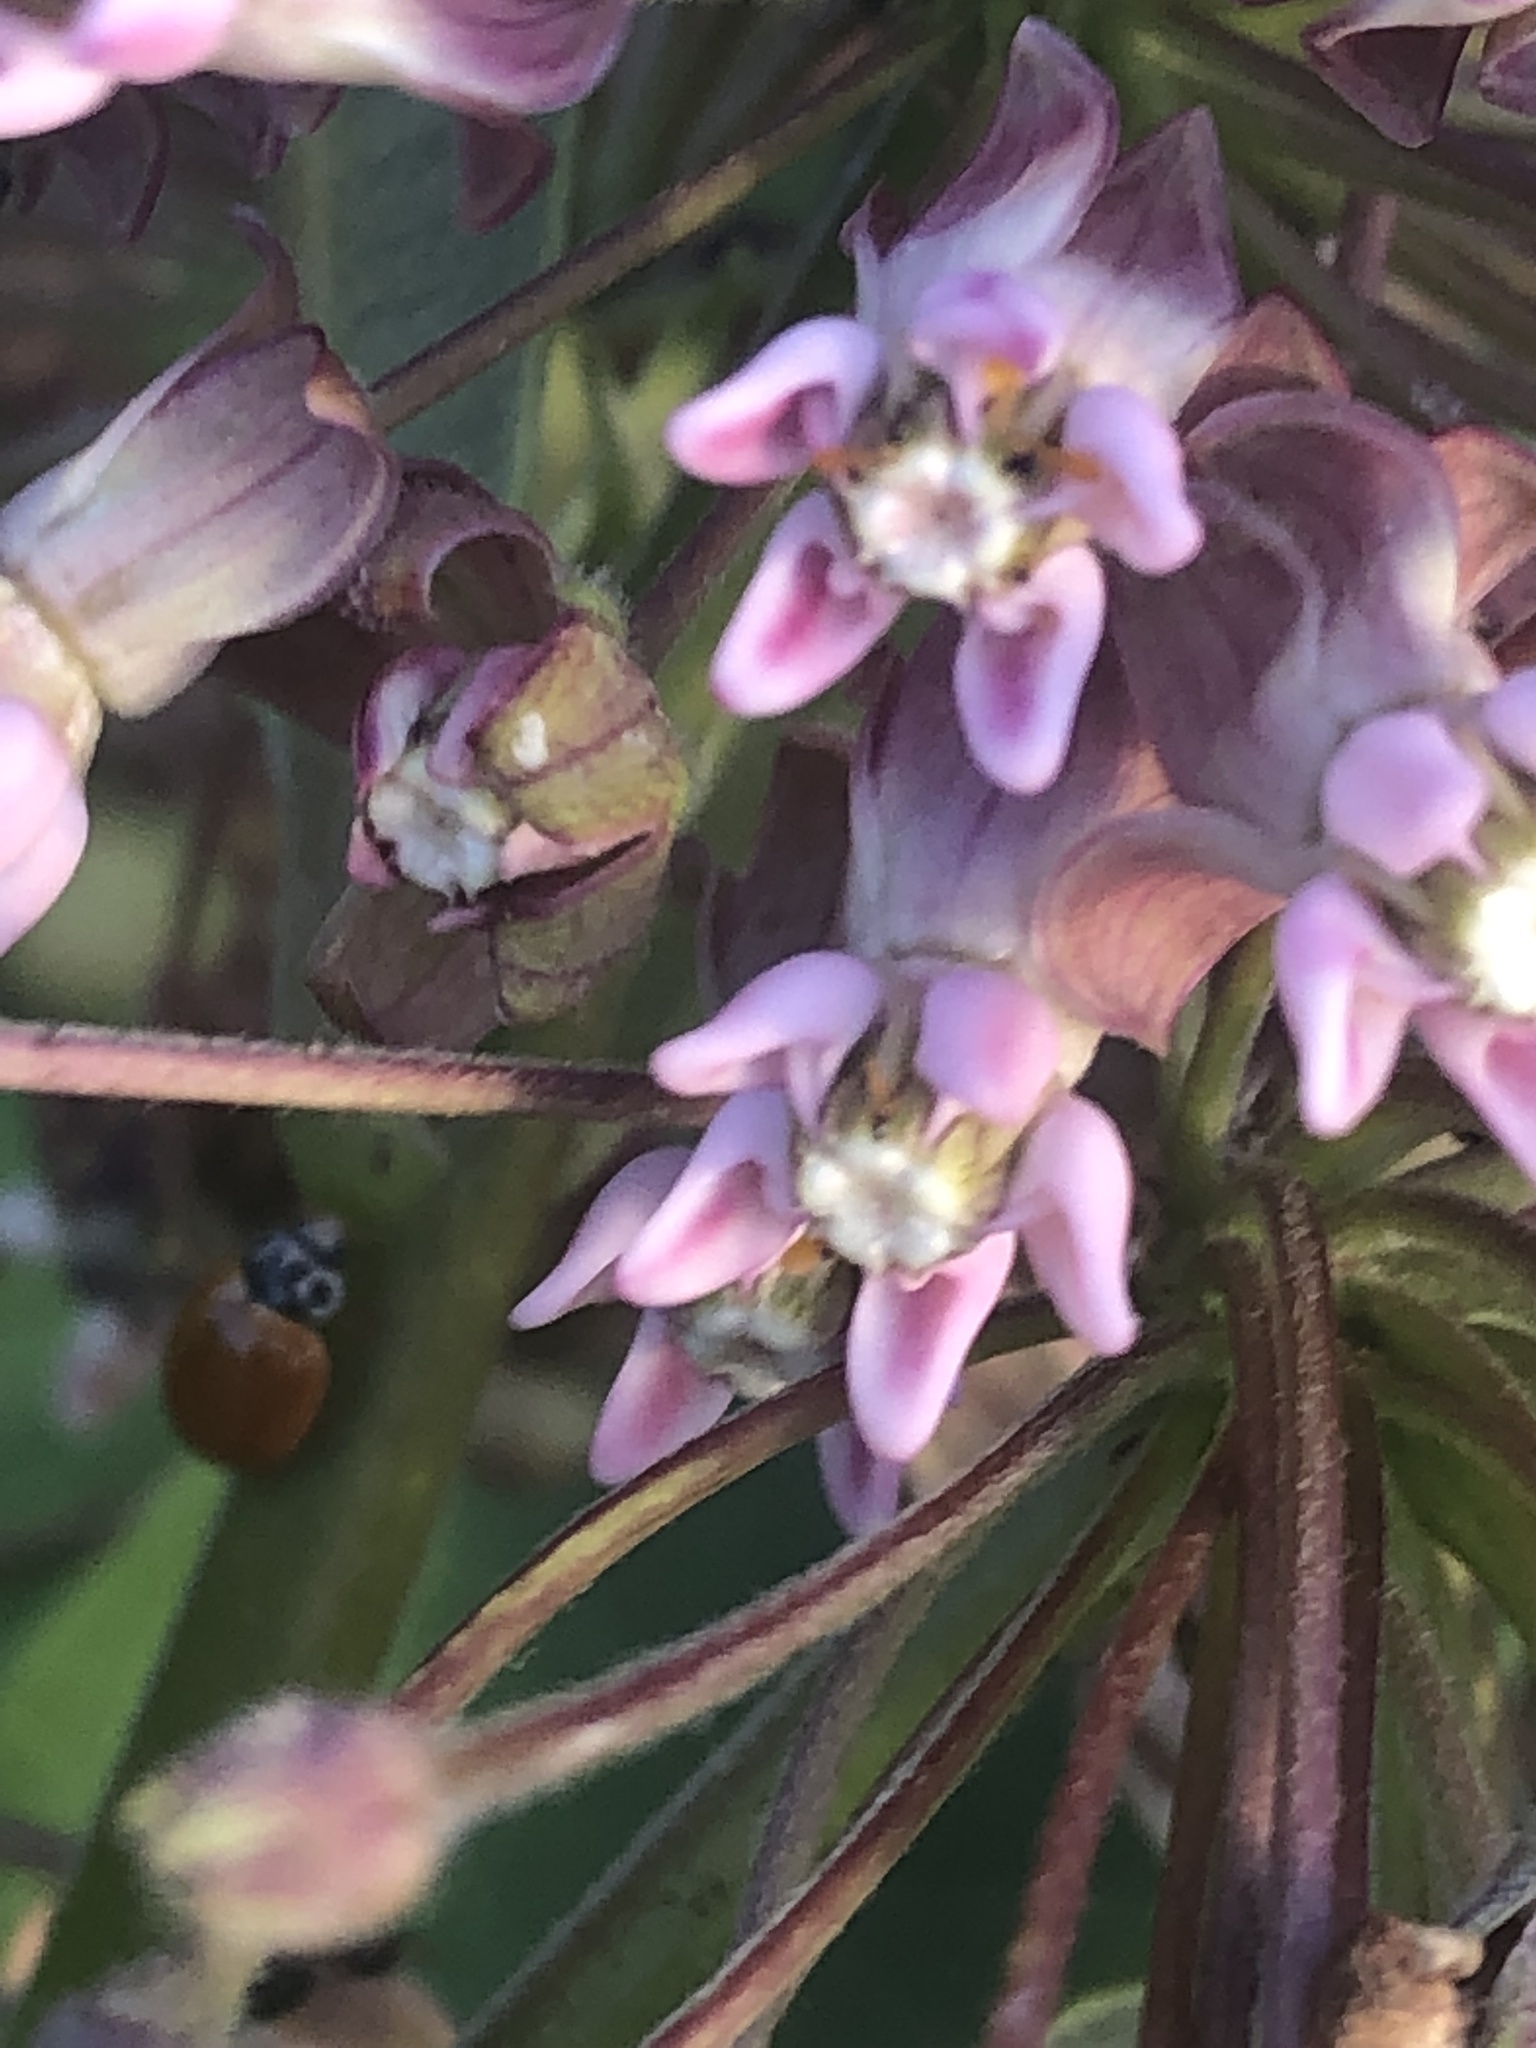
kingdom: Animalia
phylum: Arthropoda
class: Insecta
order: Coleoptera
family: Coccinellidae
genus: Cycloneda
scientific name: Cycloneda munda
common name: Polished lady beetle
